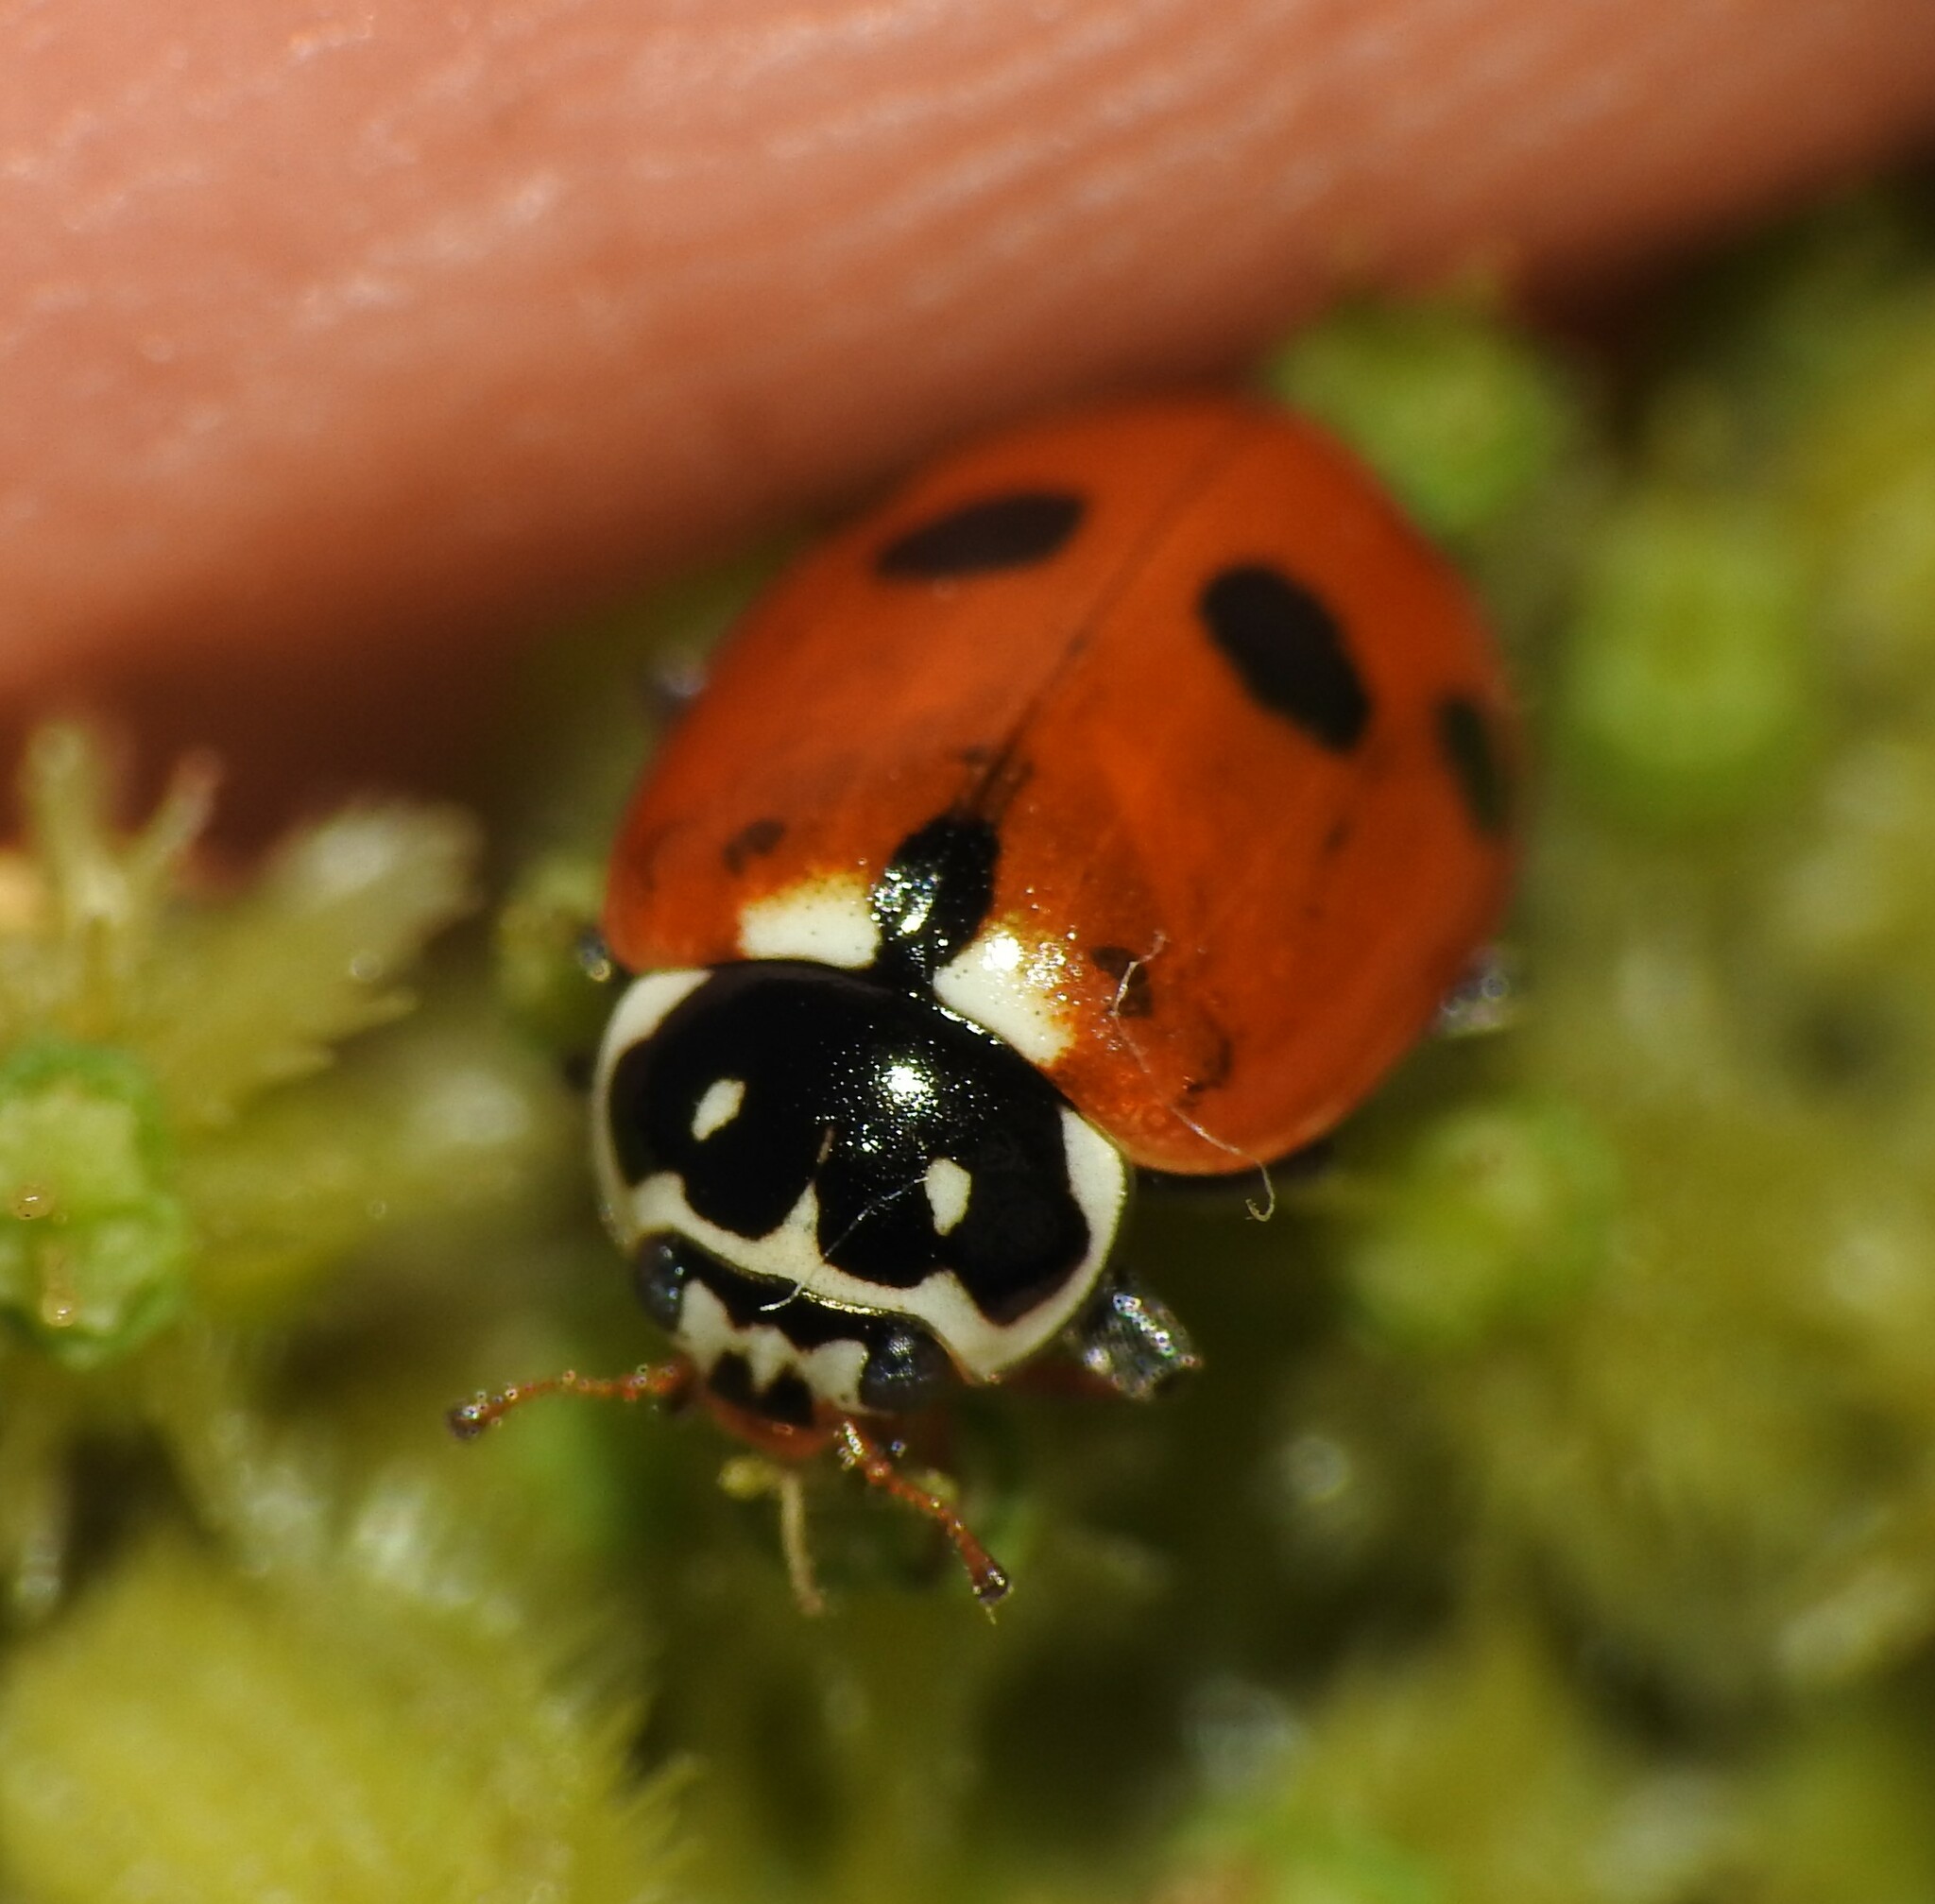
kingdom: Animalia
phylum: Arthropoda
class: Insecta
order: Coleoptera
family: Coccinellidae
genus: Hippodamia
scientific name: Hippodamia variegata
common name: Ladybird beetle
